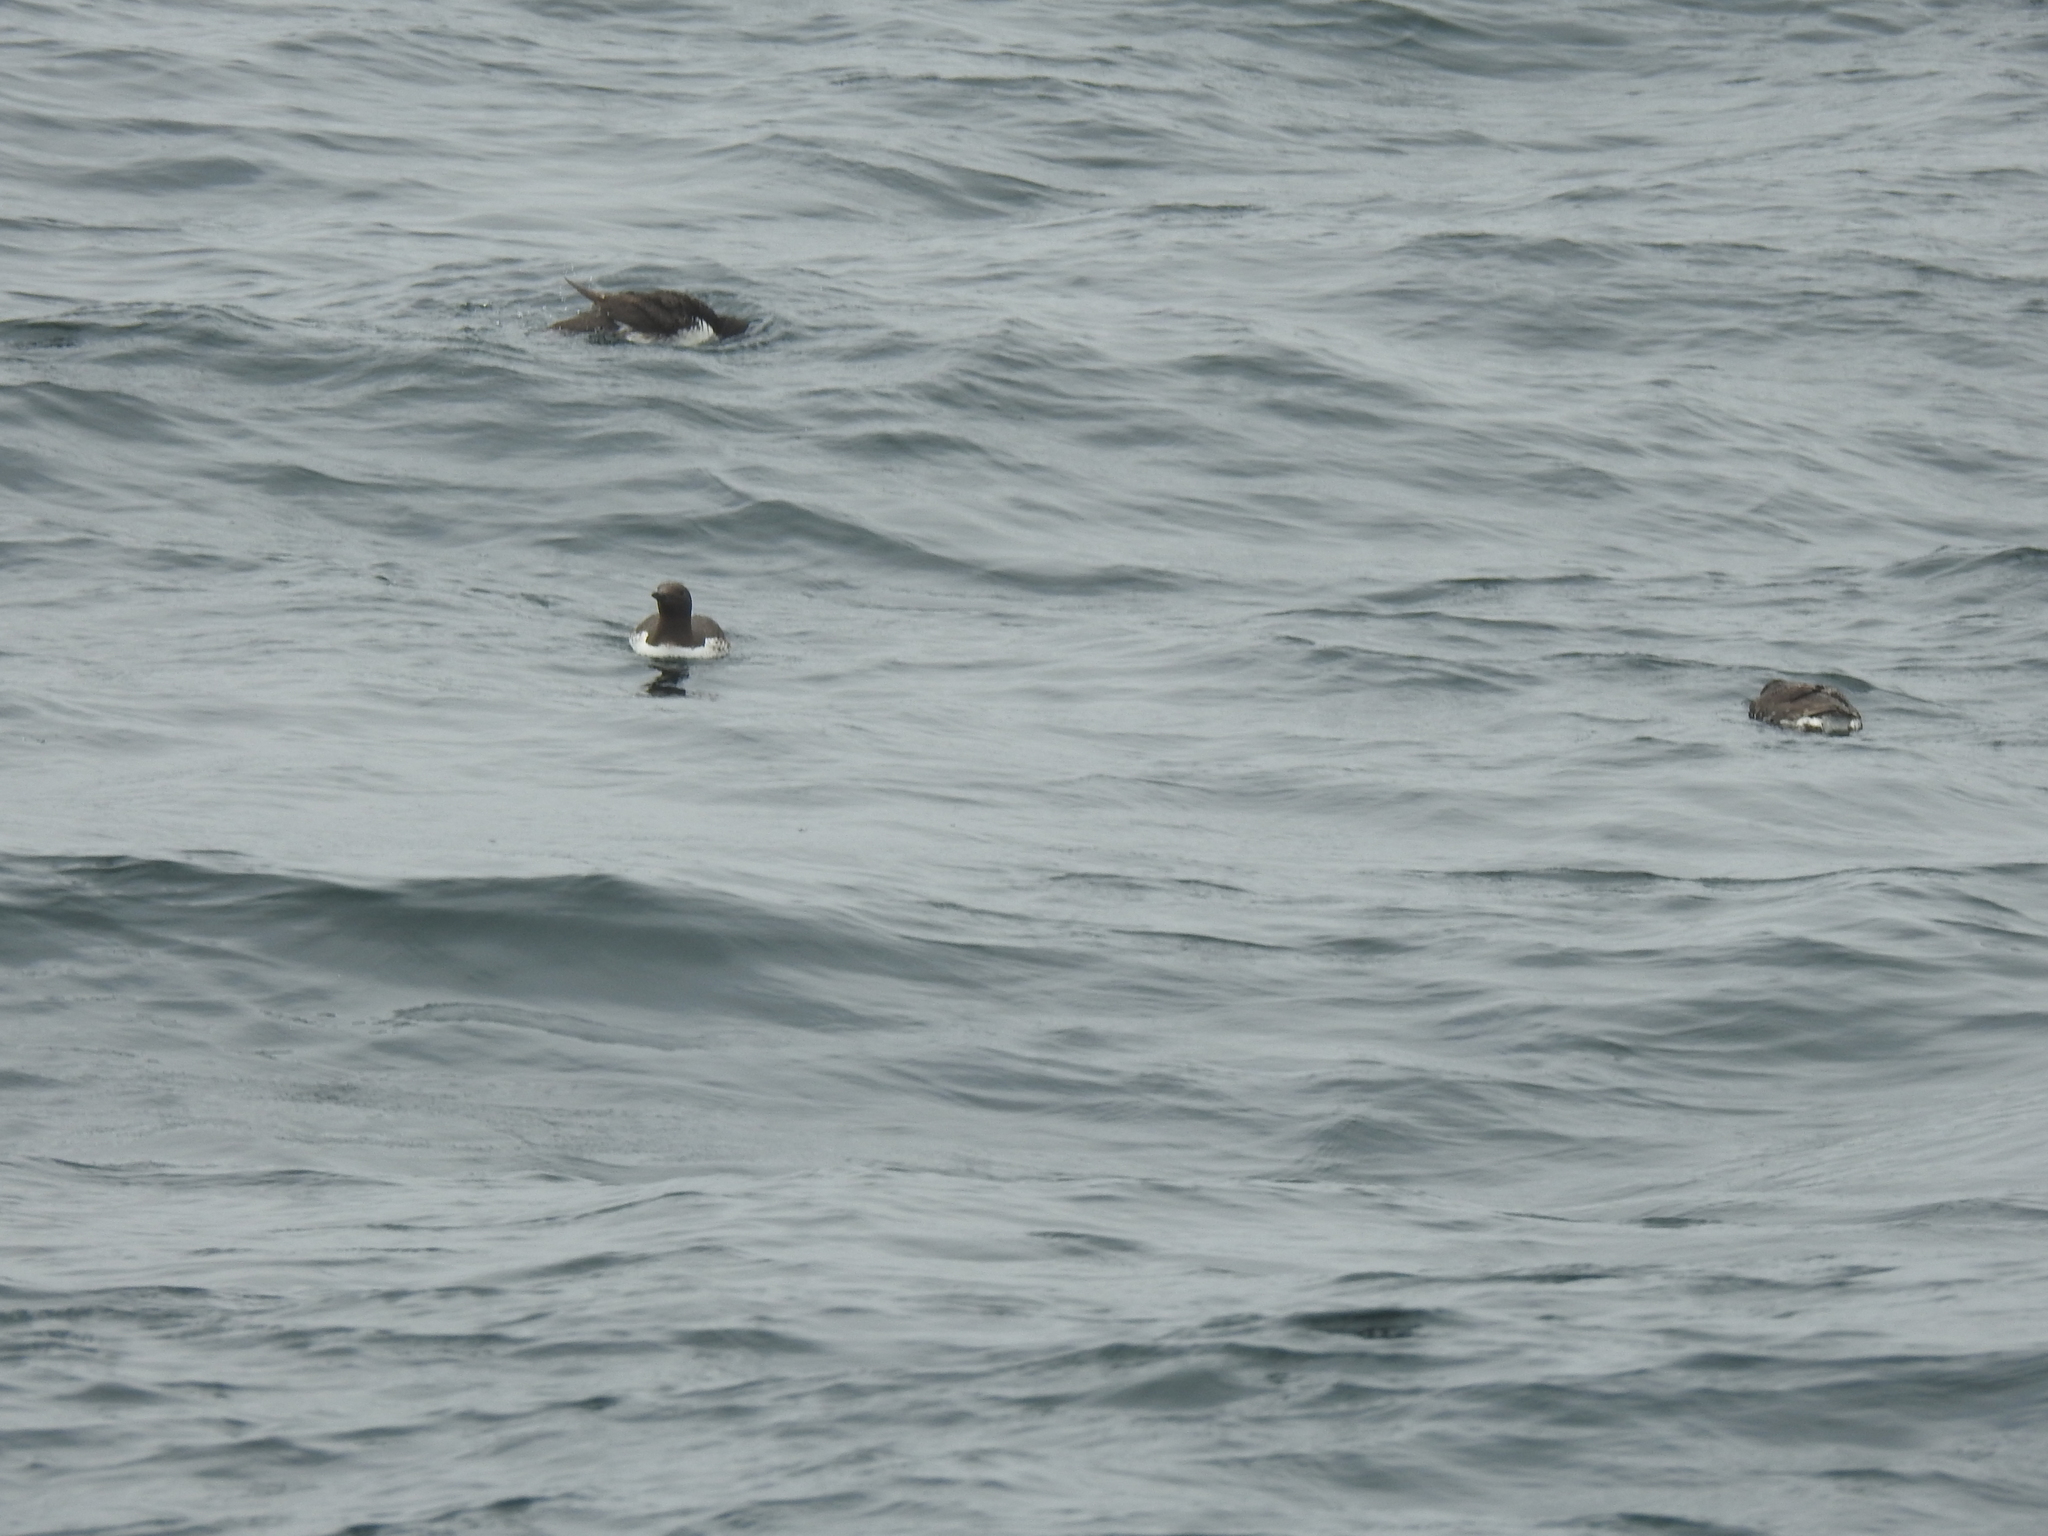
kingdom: Animalia
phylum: Chordata
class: Aves
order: Charadriiformes
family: Alcidae
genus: Uria
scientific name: Uria aalge
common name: Common murre
